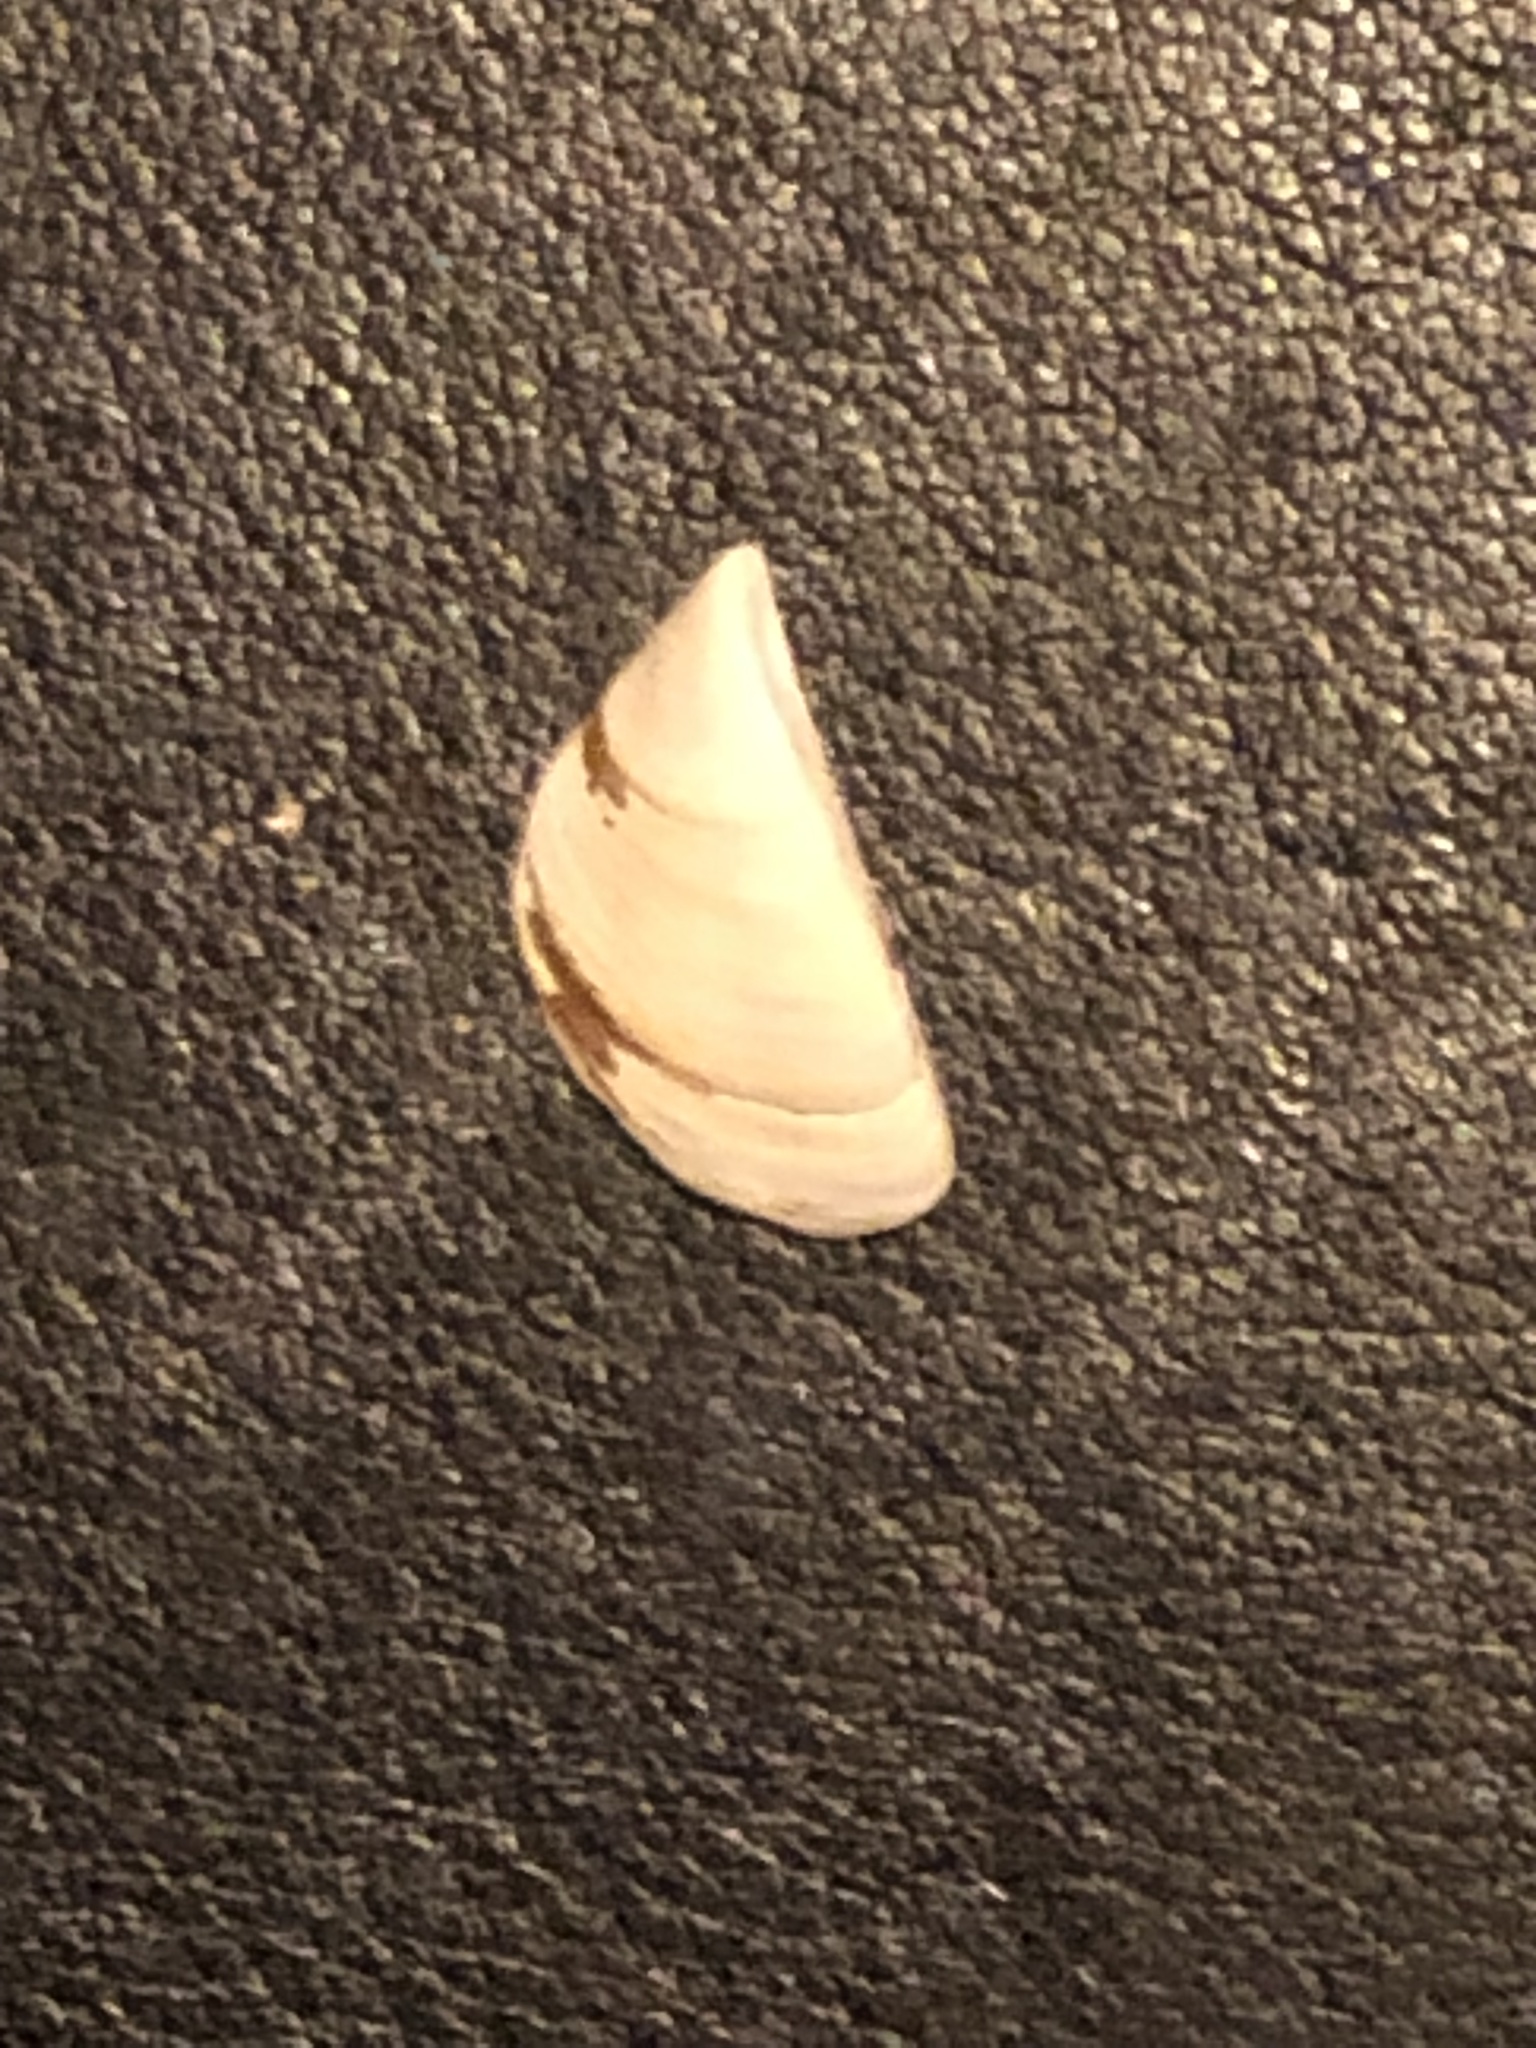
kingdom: Animalia
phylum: Mollusca
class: Bivalvia
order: Myida
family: Dreissenidae
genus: Dreissena
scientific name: Dreissena polymorpha
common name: Zebra mussel
